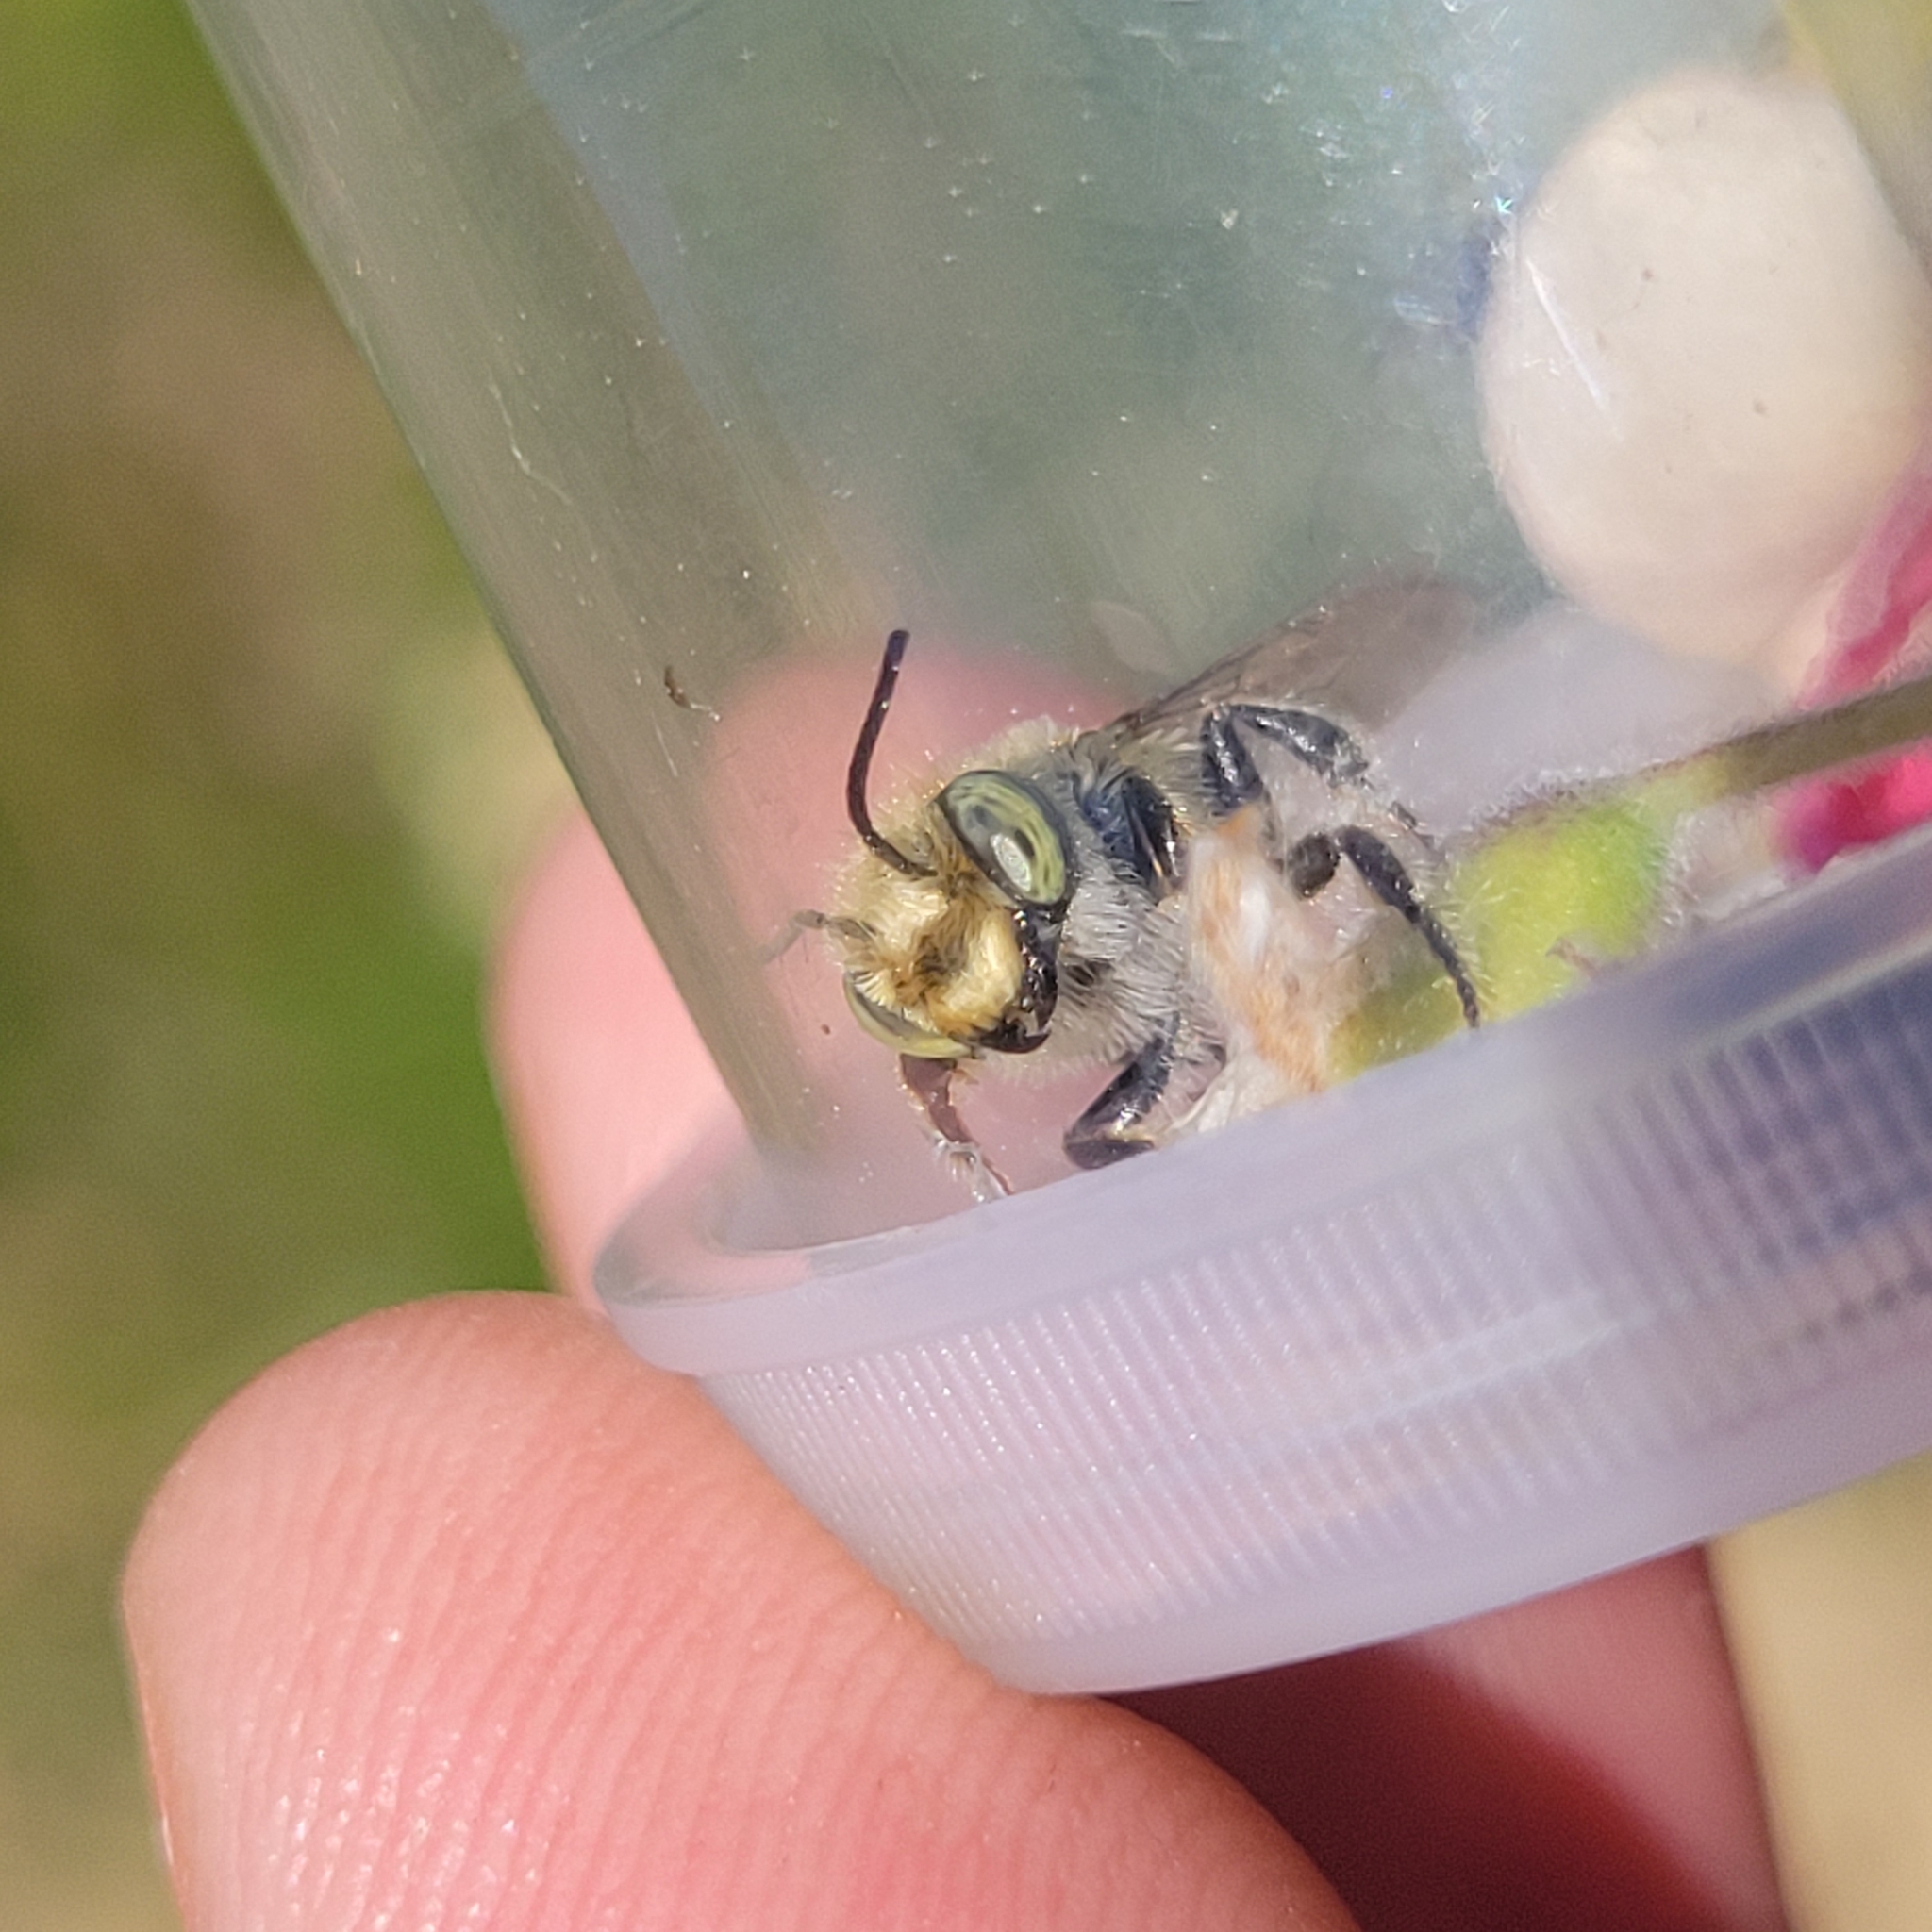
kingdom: Animalia
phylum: Arthropoda
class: Insecta
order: Hymenoptera
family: Megachilidae
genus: Megachile
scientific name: Megachile rotundata
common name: Alfalfa leafcutting bee
